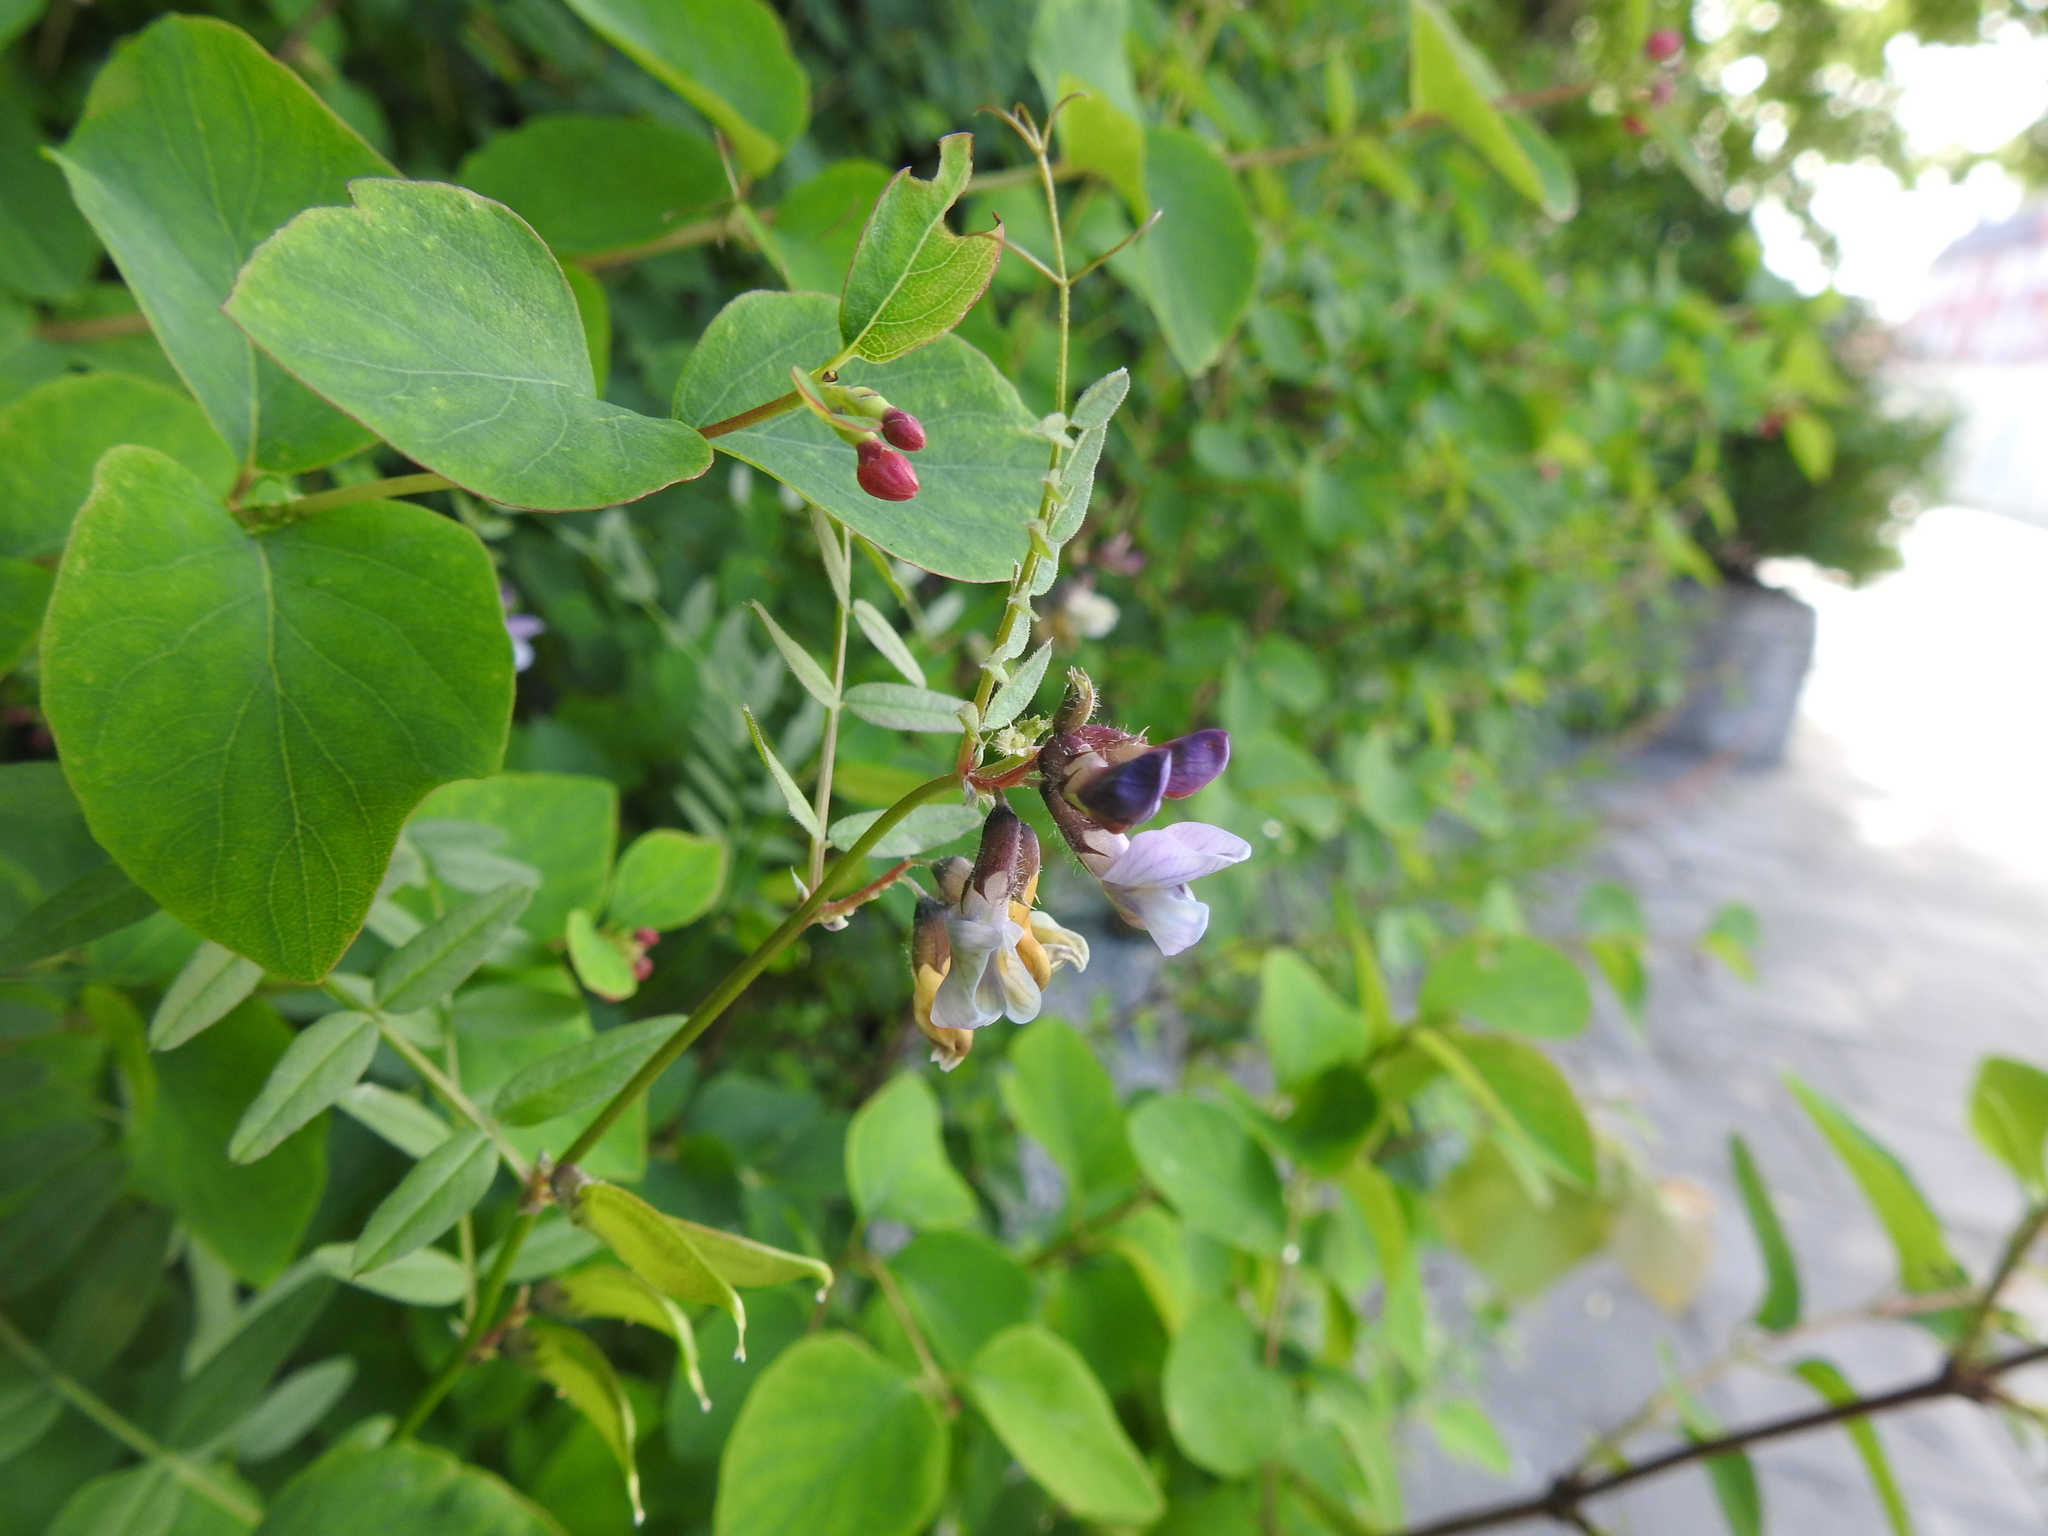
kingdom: Plantae
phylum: Tracheophyta
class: Magnoliopsida
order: Fabales
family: Fabaceae
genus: Vicia
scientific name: Vicia sepium
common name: Bush vetch
